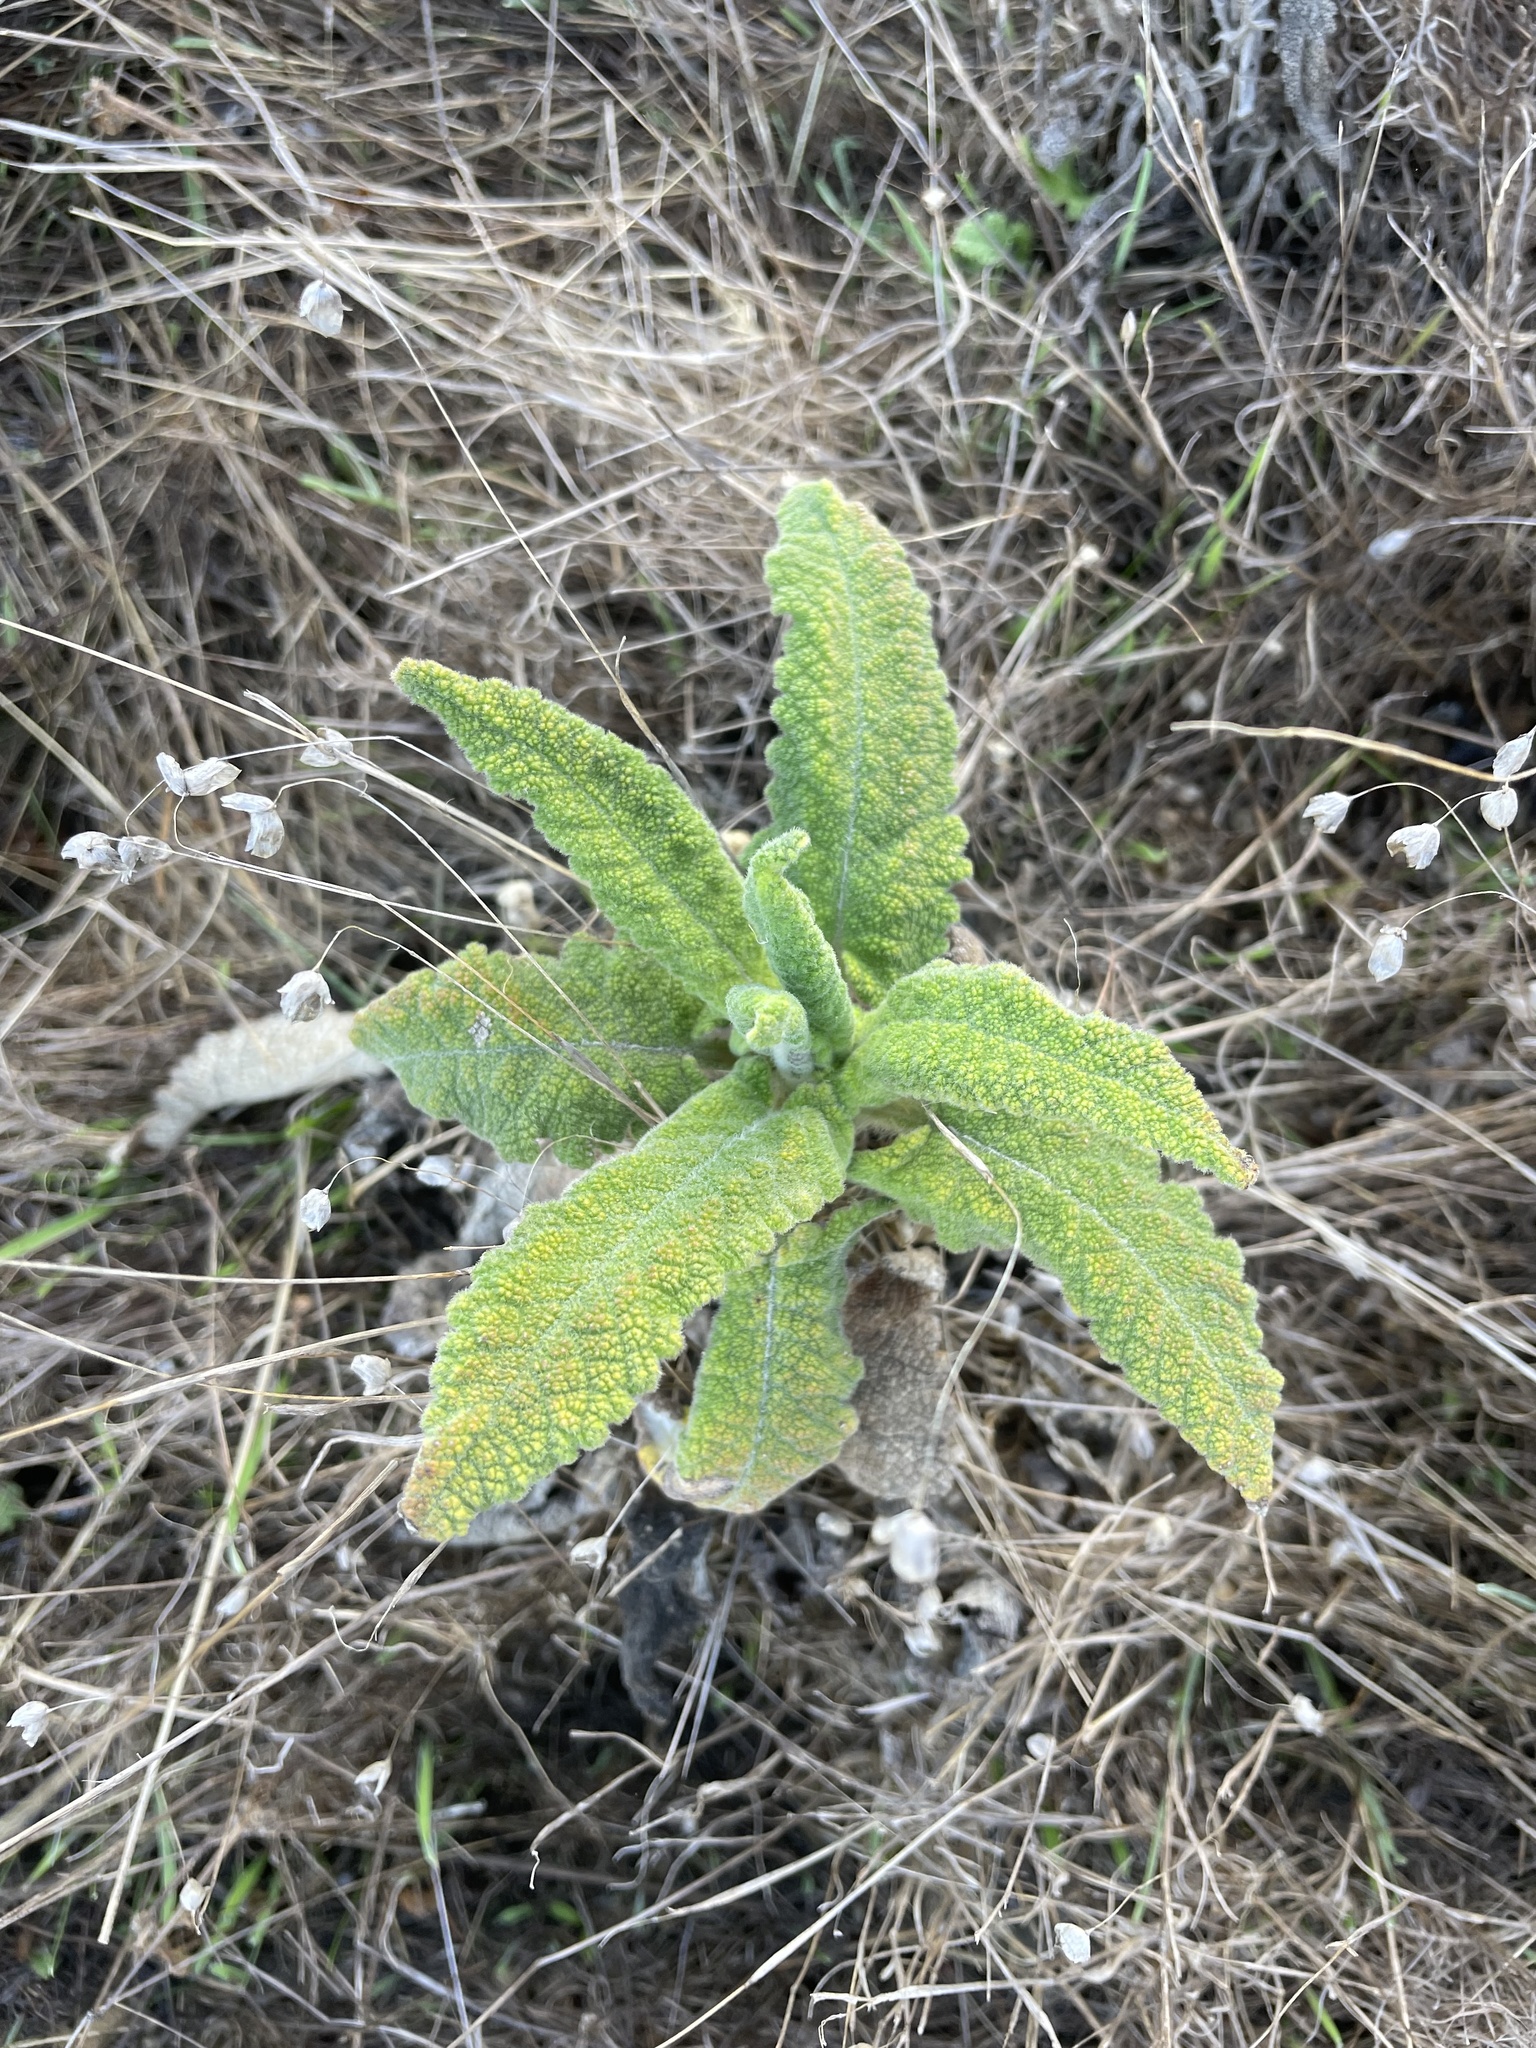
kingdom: Plantae
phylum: Tracheophyta
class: Magnoliopsida
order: Lamiales
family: Lamiaceae
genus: Salvia
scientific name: Salvia spathacea
